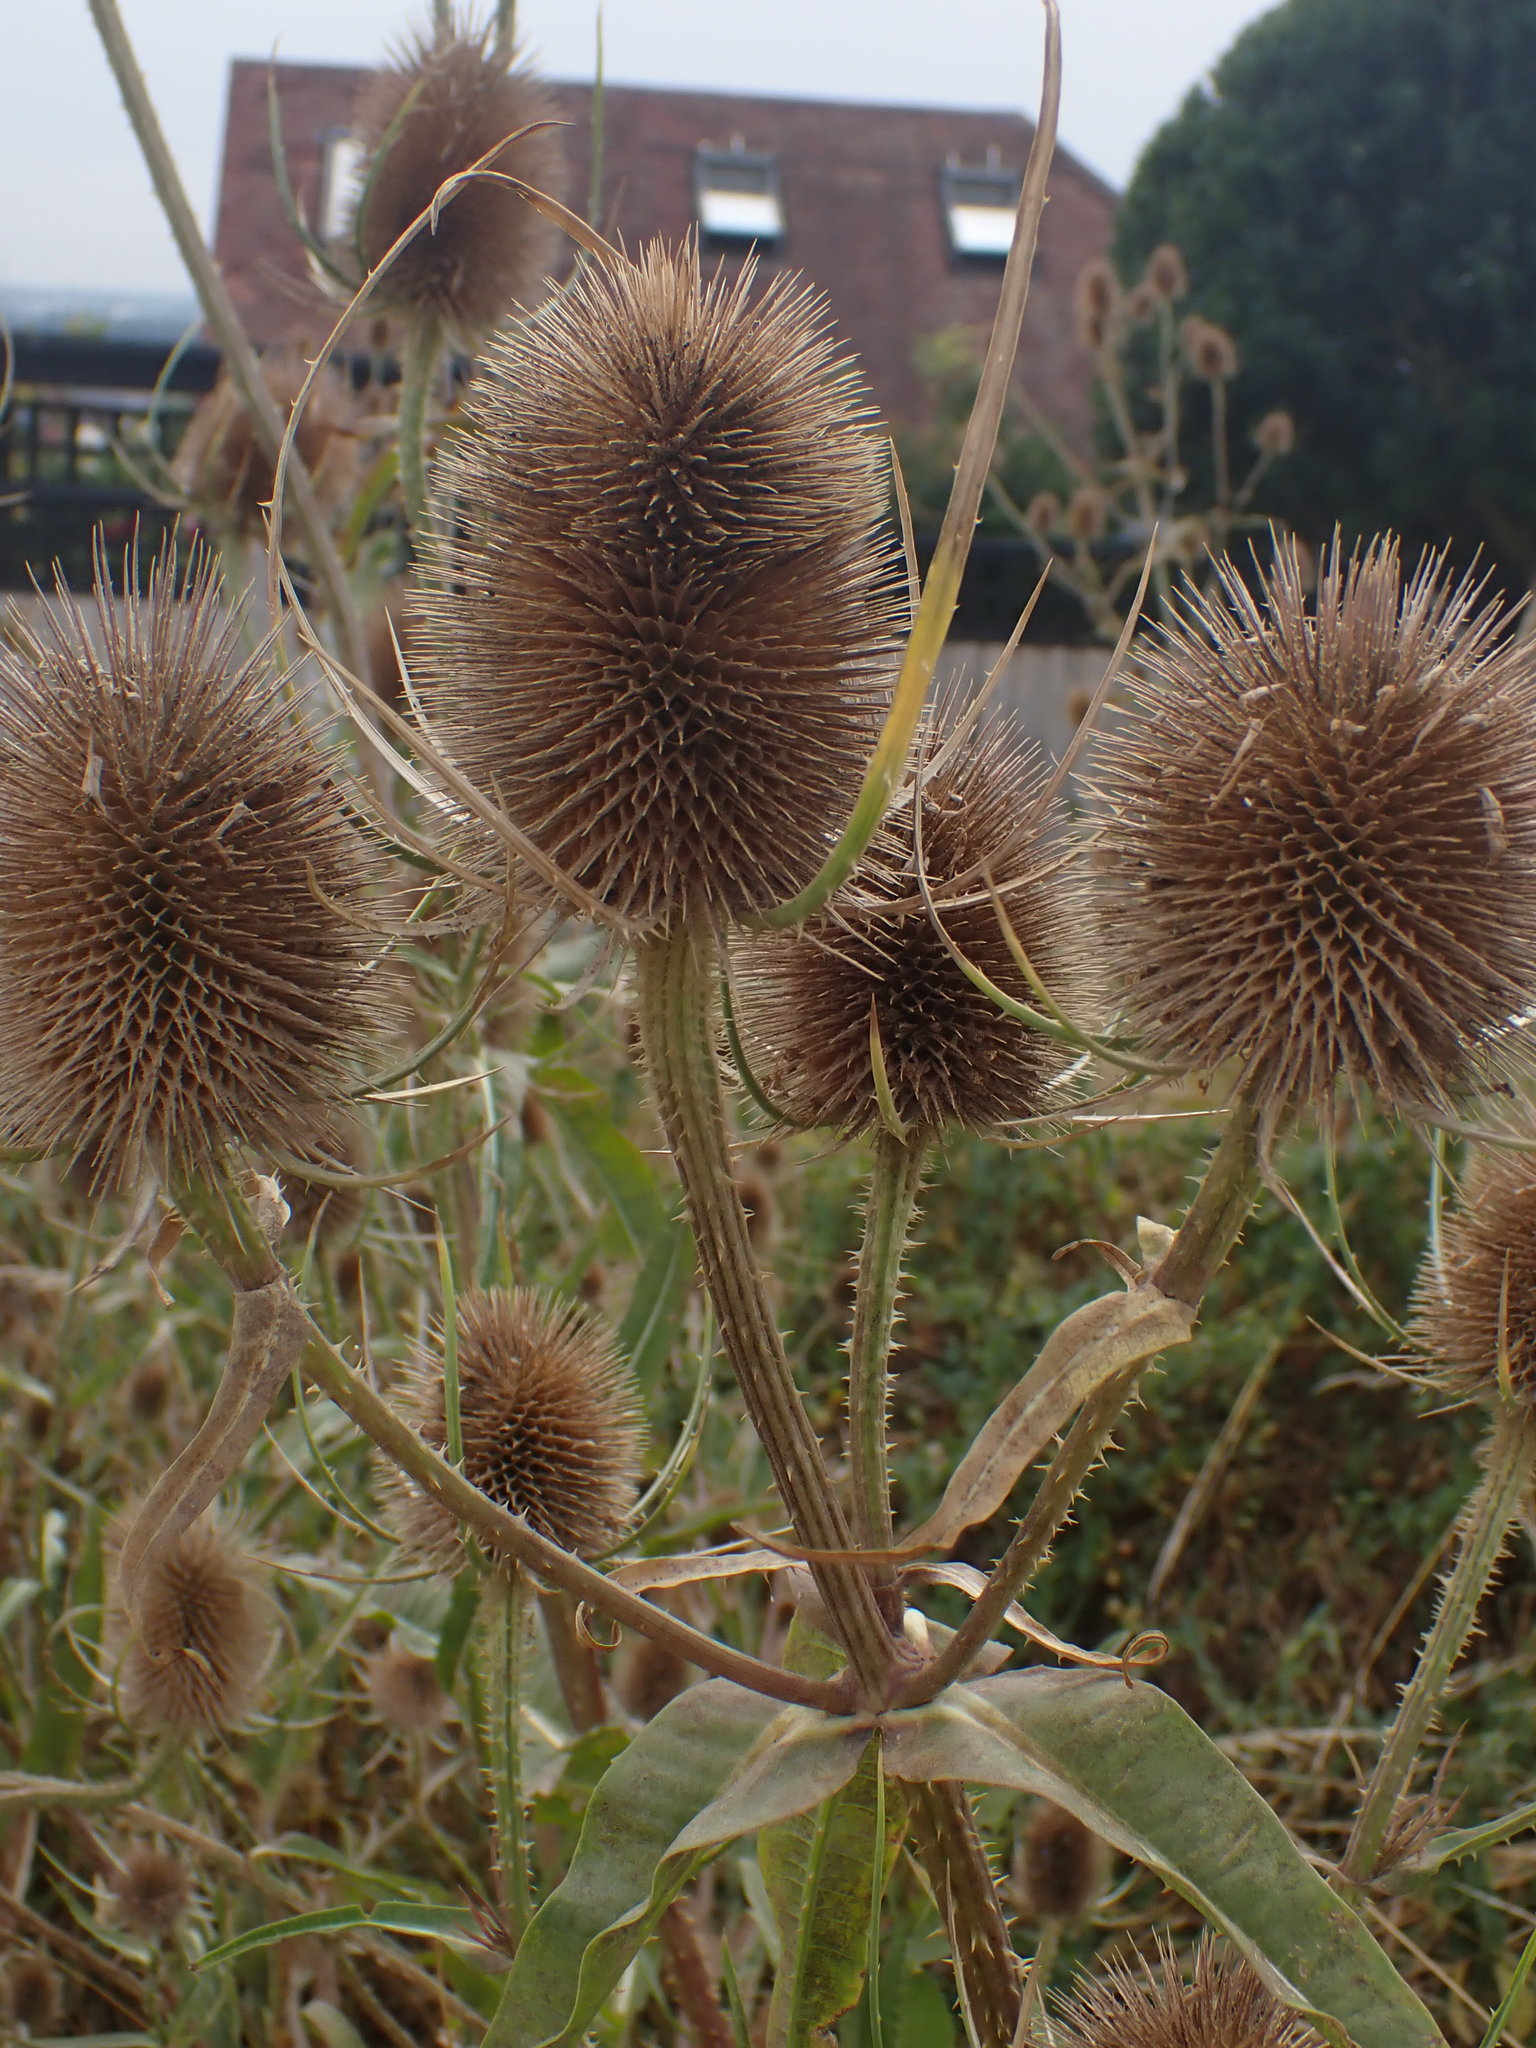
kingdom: Plantae
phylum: Tracheophyta
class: Magnoliopsida
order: Dipsacales
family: Caprifoliaceae
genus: Dipsacus
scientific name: Dipsacus fullonum
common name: Teasel
